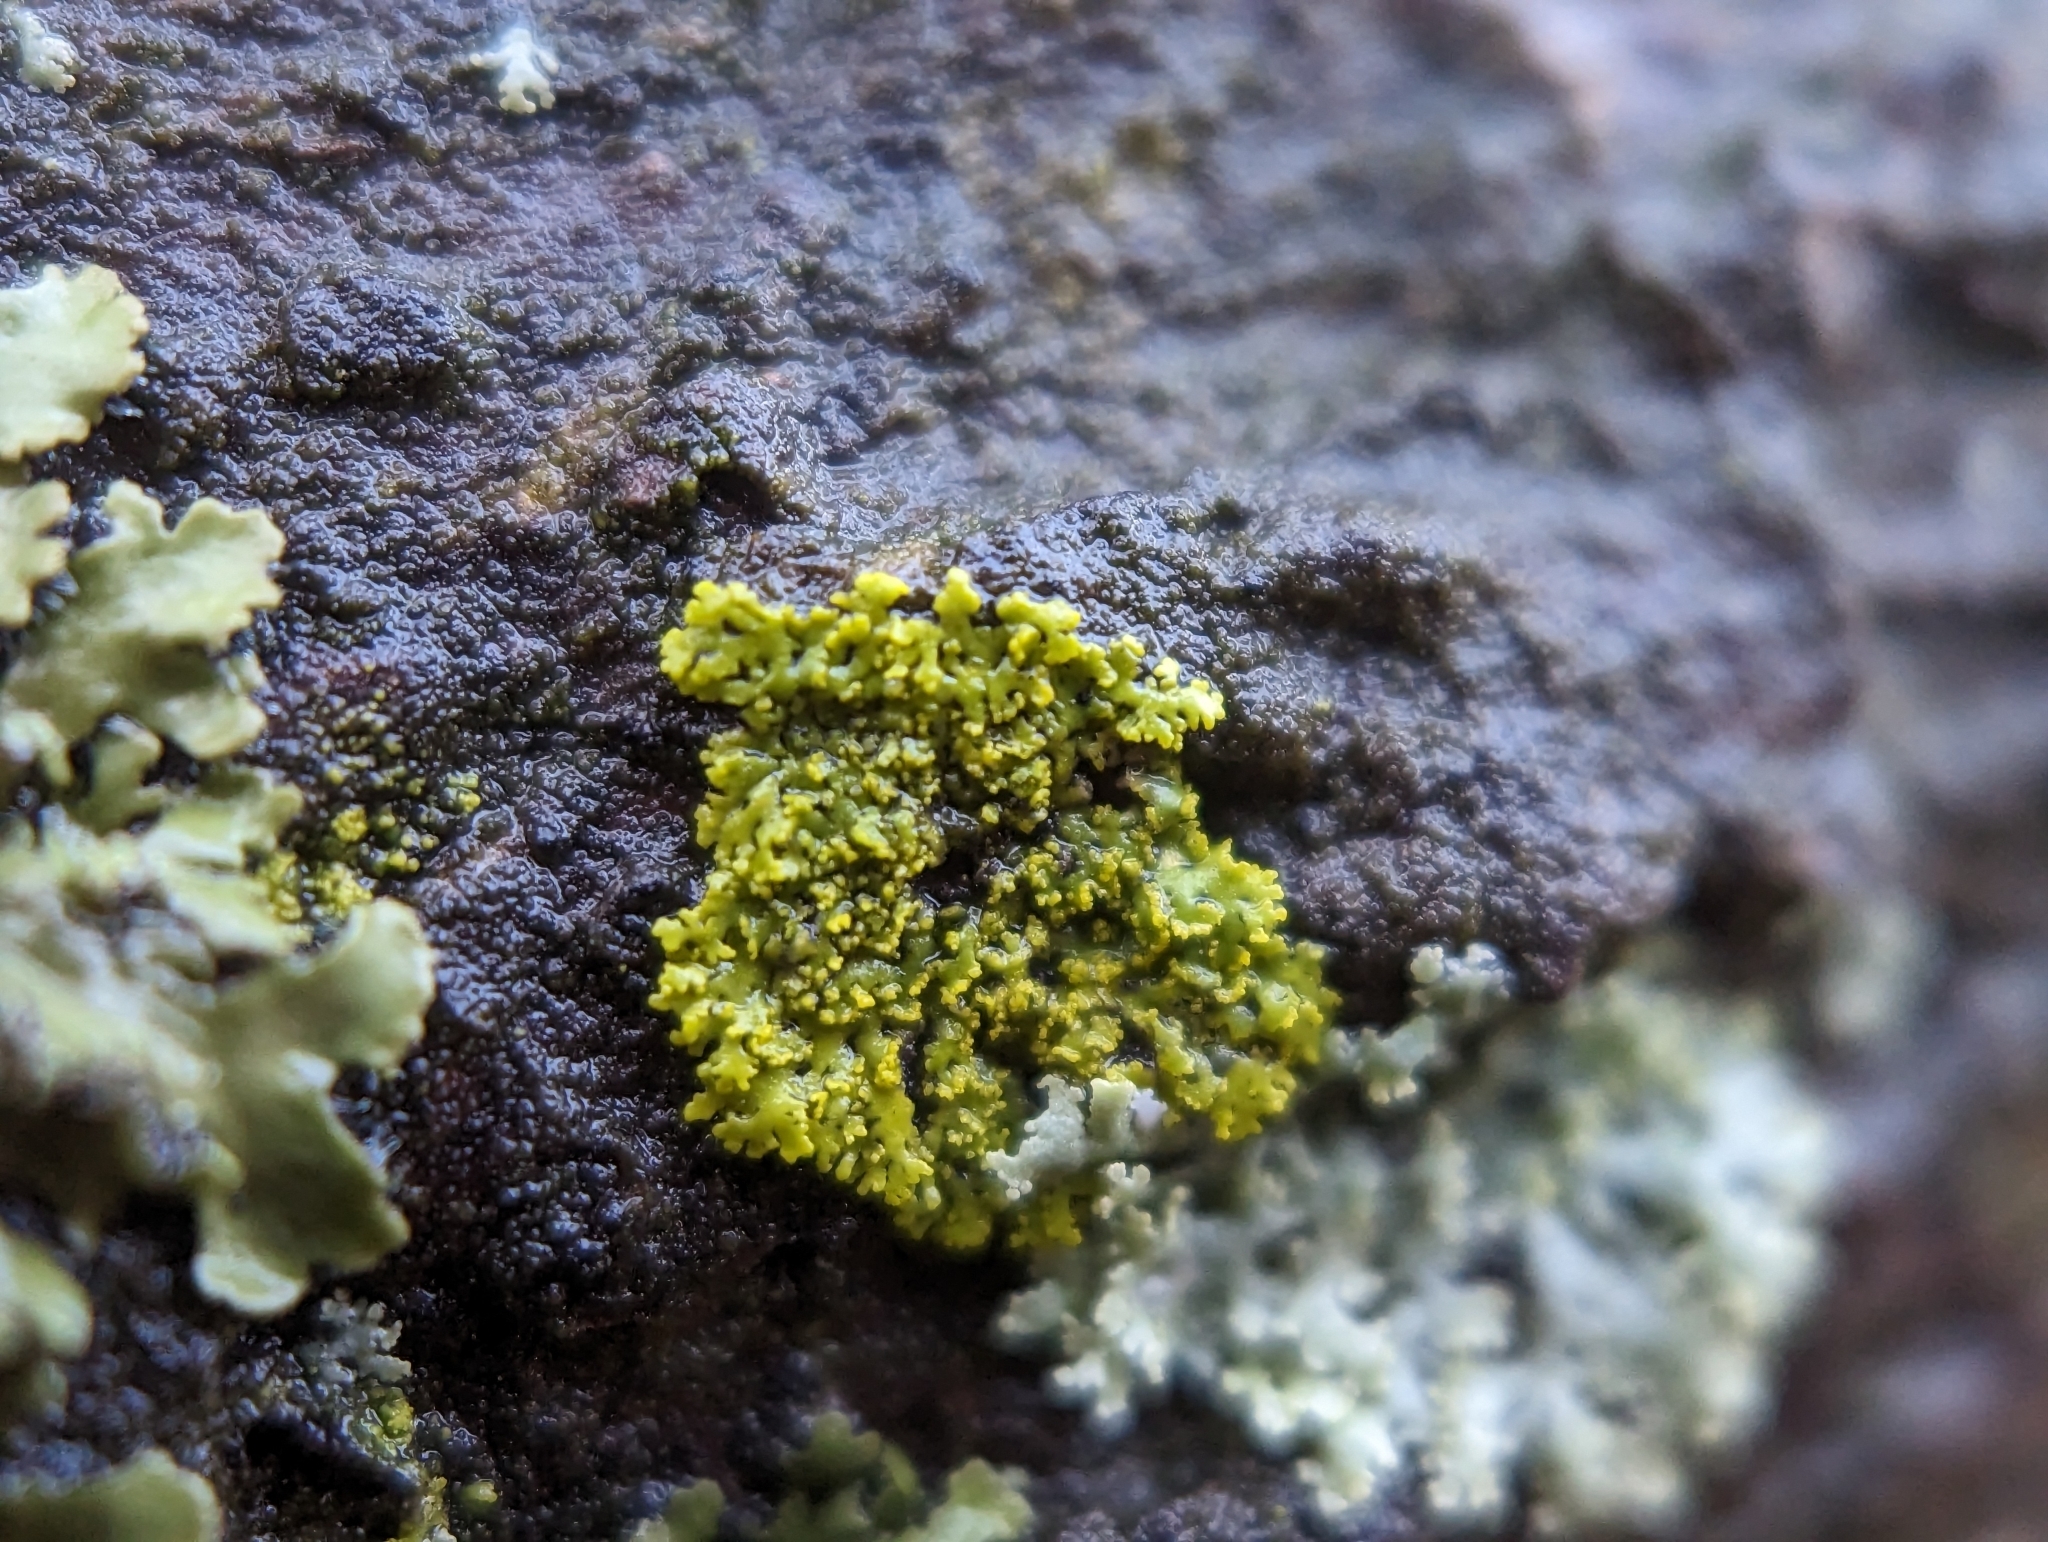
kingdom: Fungi
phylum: Ascomycota
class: Candelariomycetes
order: Candelariales
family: Candelariaceae
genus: Candelaria
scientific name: Candelaria concolor
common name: Candleflame lichen
